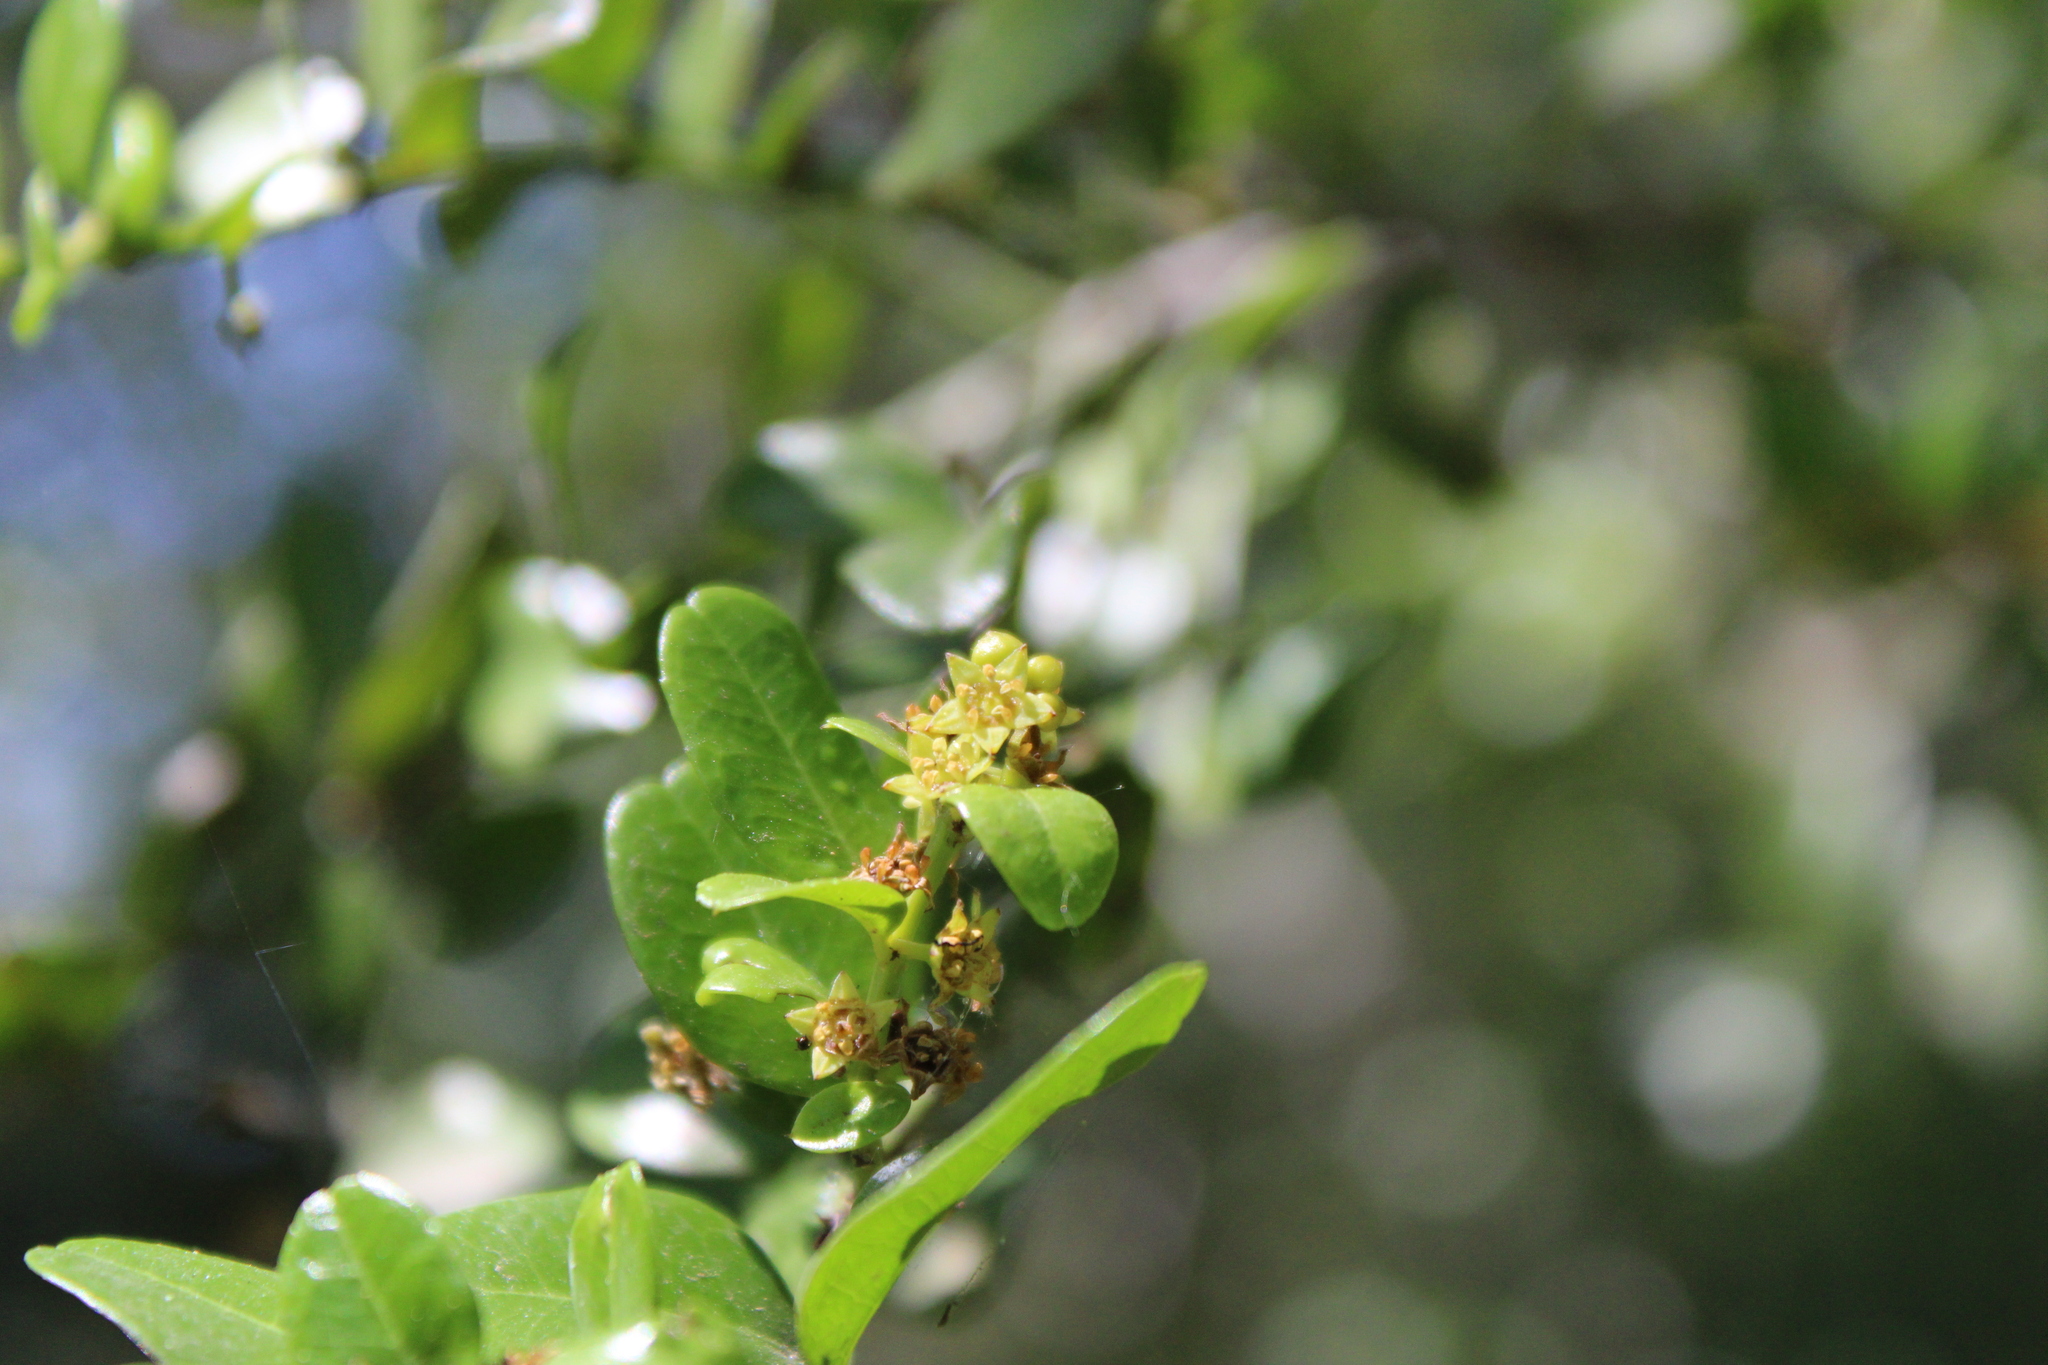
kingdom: Plantae
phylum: Tracheophyta
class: Magnoliopsida
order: Rosales
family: Rhamnaceae
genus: Scutia
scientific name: Scutia buxifolia
